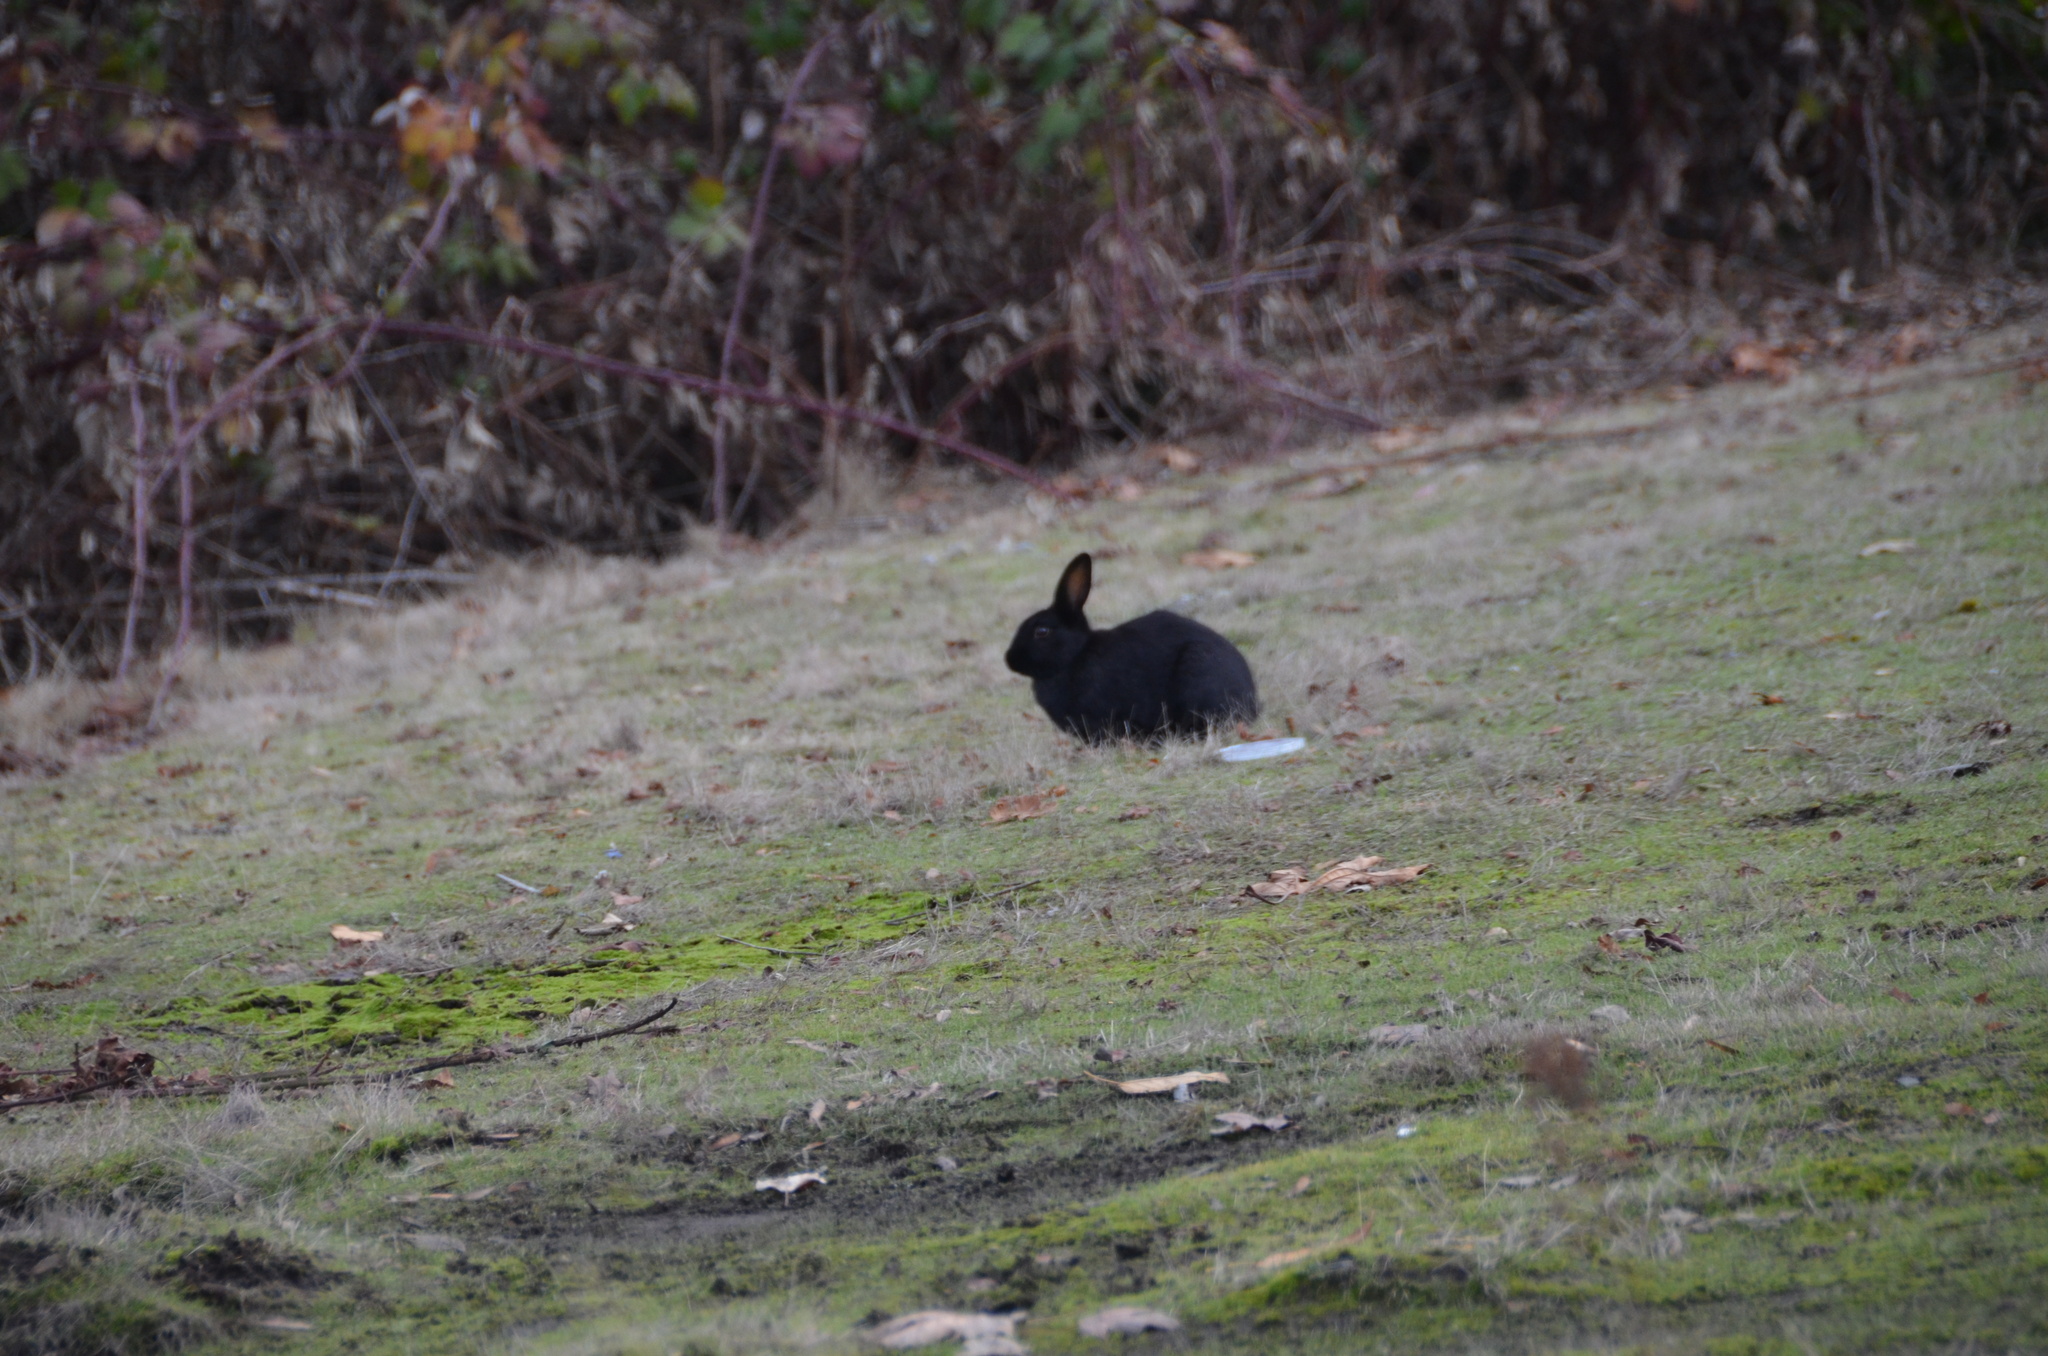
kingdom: Animalia
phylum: Chordata
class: Mammalia
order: Lagomorpha
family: Leporidae
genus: Oryctolagus
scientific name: Oryctolagus cuniculus
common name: European rabbit
